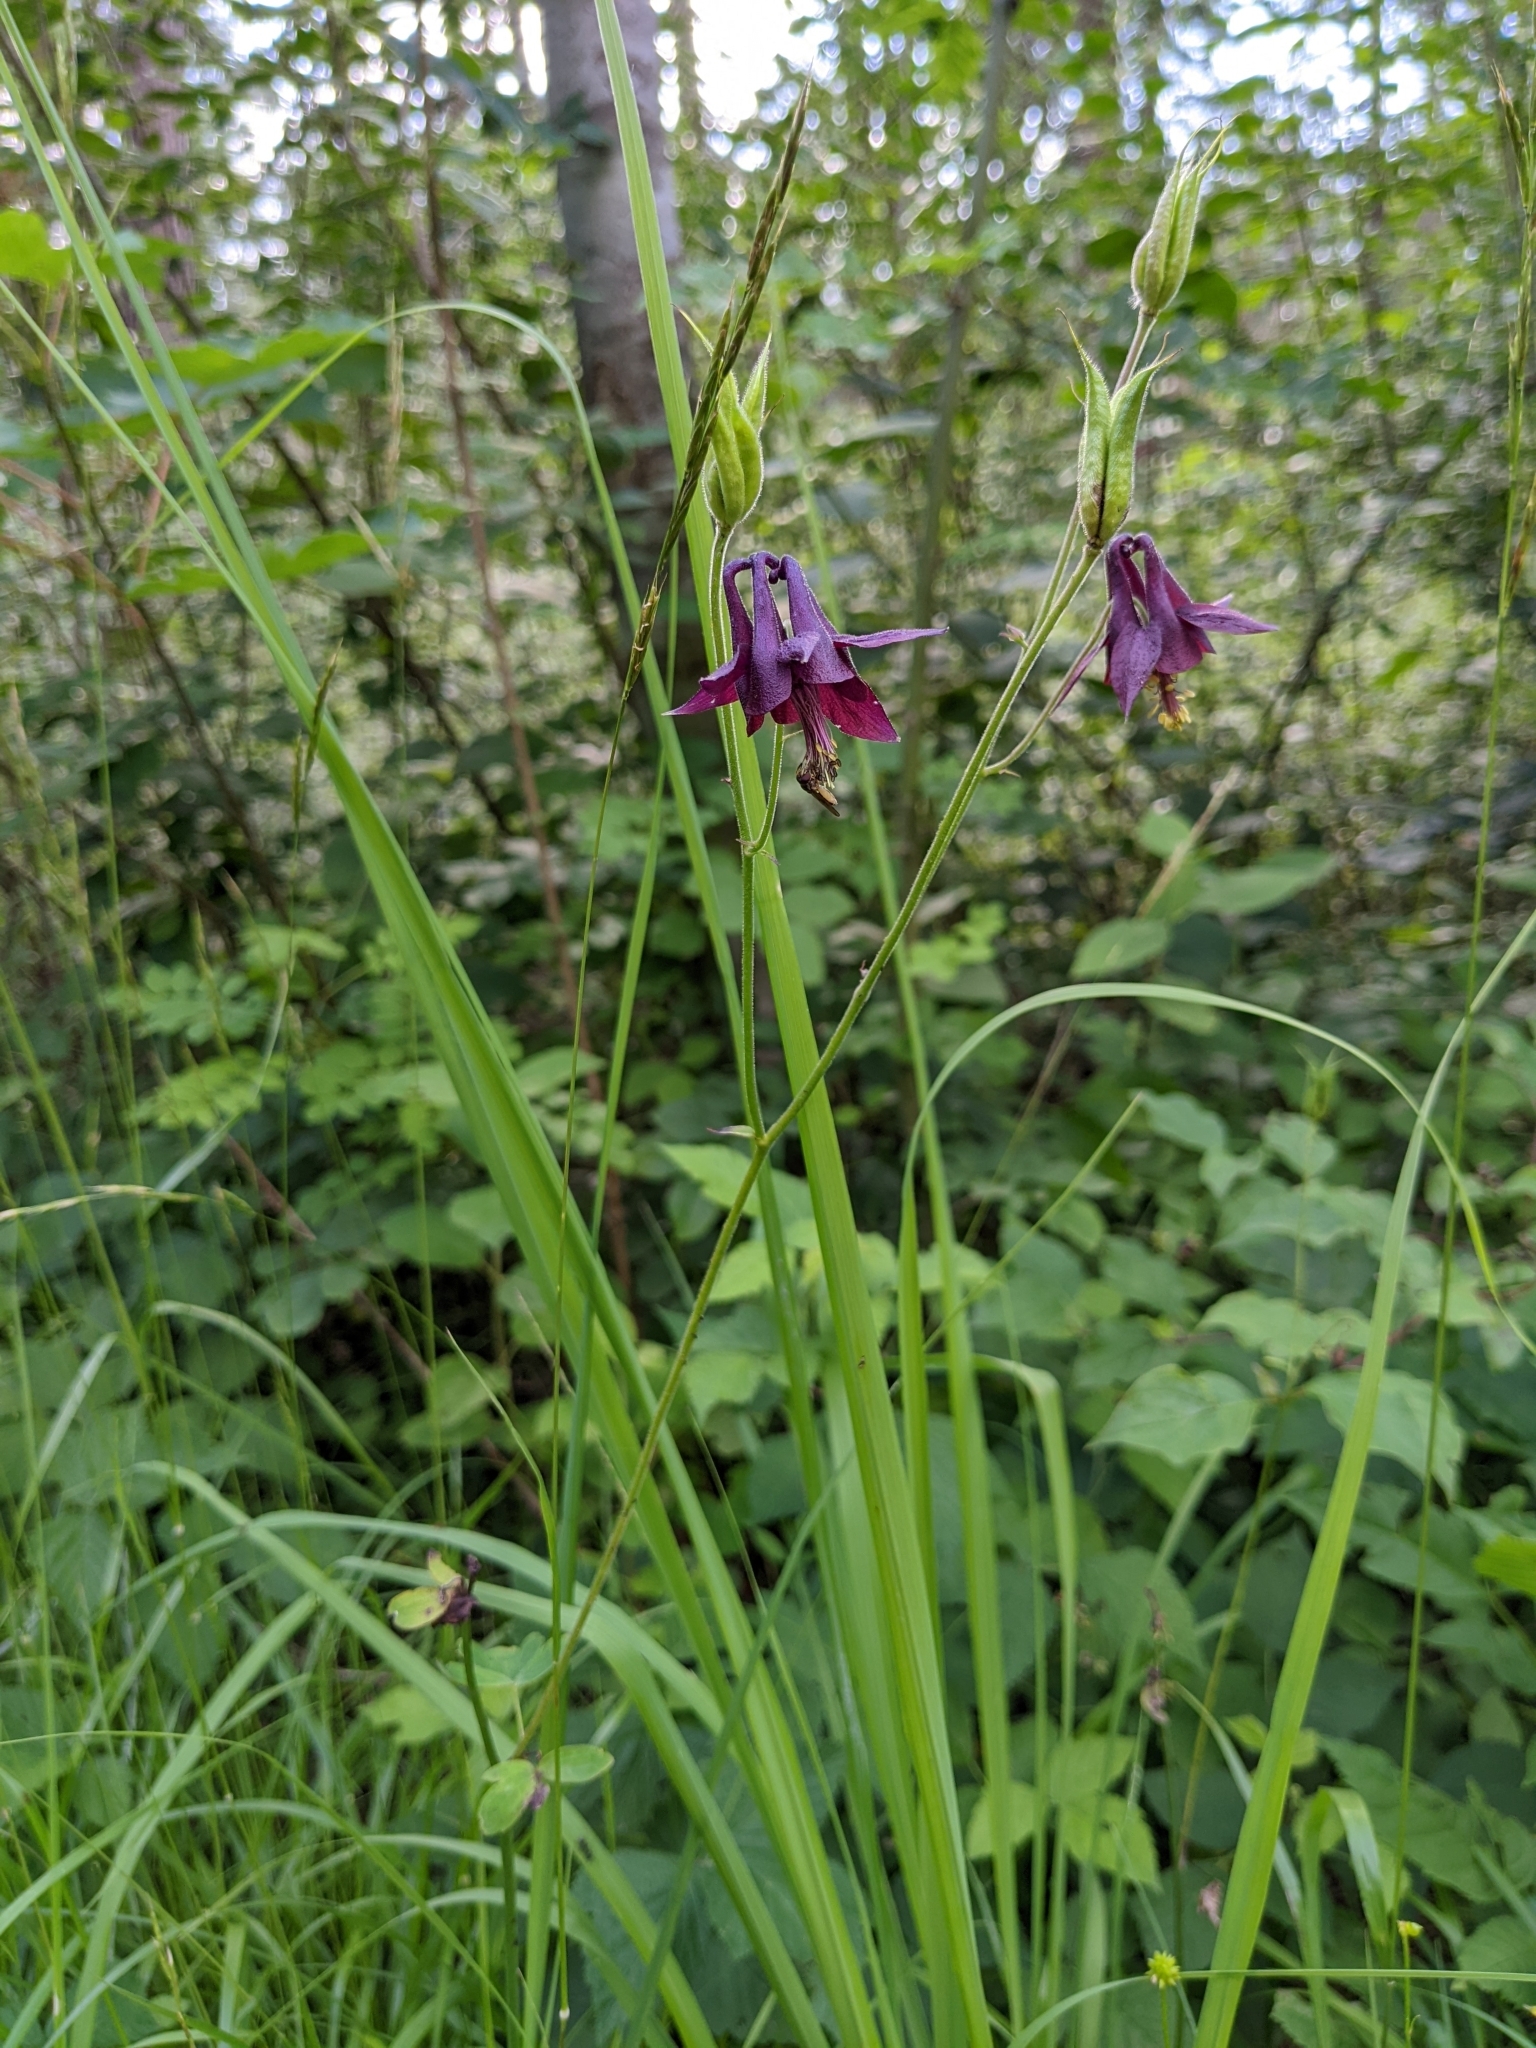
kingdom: Plantae
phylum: Tracheophyta
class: Magnoliopsida
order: Ranunculales
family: Ranunculaceae
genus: Aquilegia
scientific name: Aquilegia atrata
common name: Dark columbine
